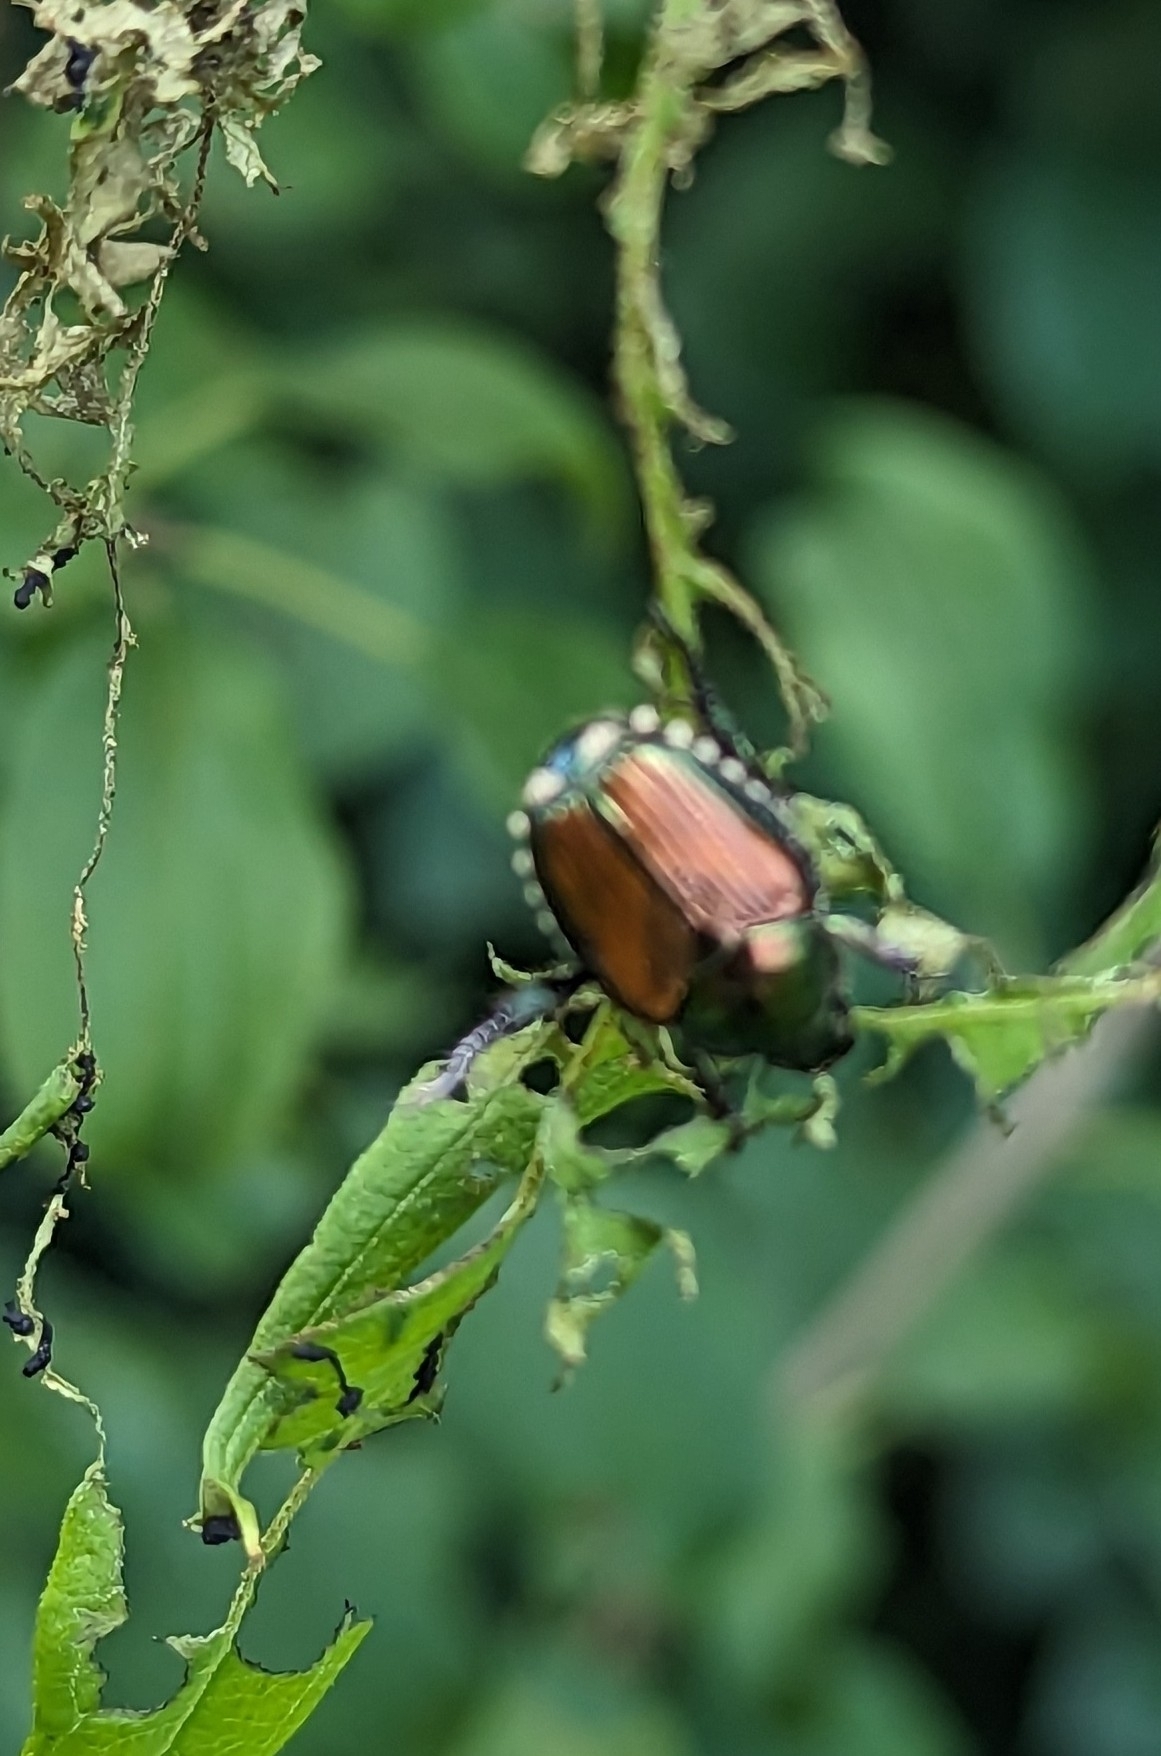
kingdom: Animalia
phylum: Arthropoda
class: Insecta
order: Coleoptera
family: Scarabaeidae
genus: Popillia
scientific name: Popillia japonica
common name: Japanese beetle
